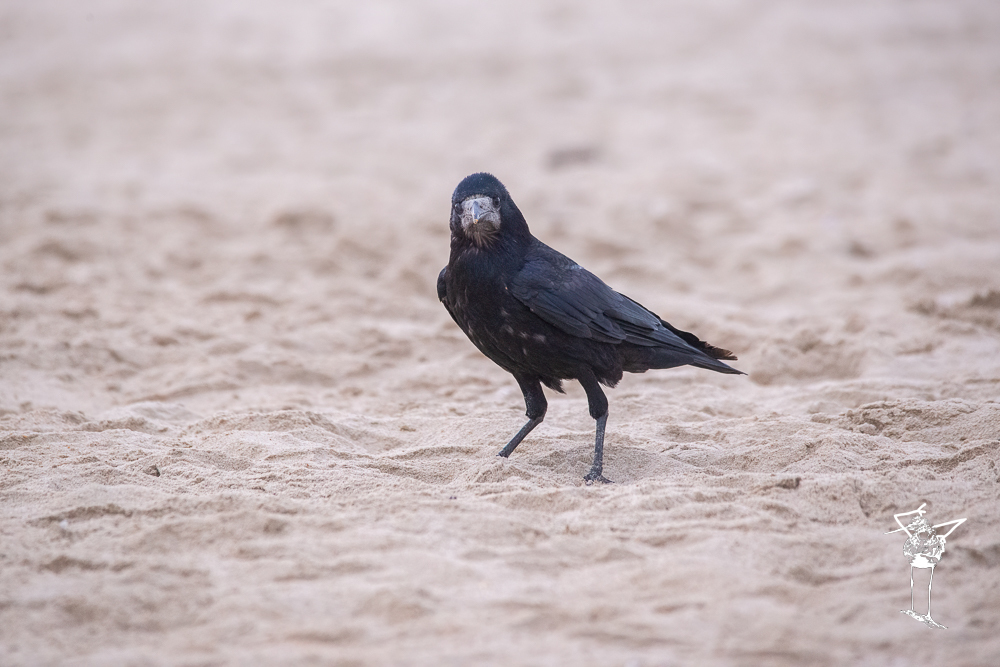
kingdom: Animalia
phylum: Chordata
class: Aves
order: Passeriformes
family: Corvidae
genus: Corvus
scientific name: Corvus frugilegus
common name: Rook
